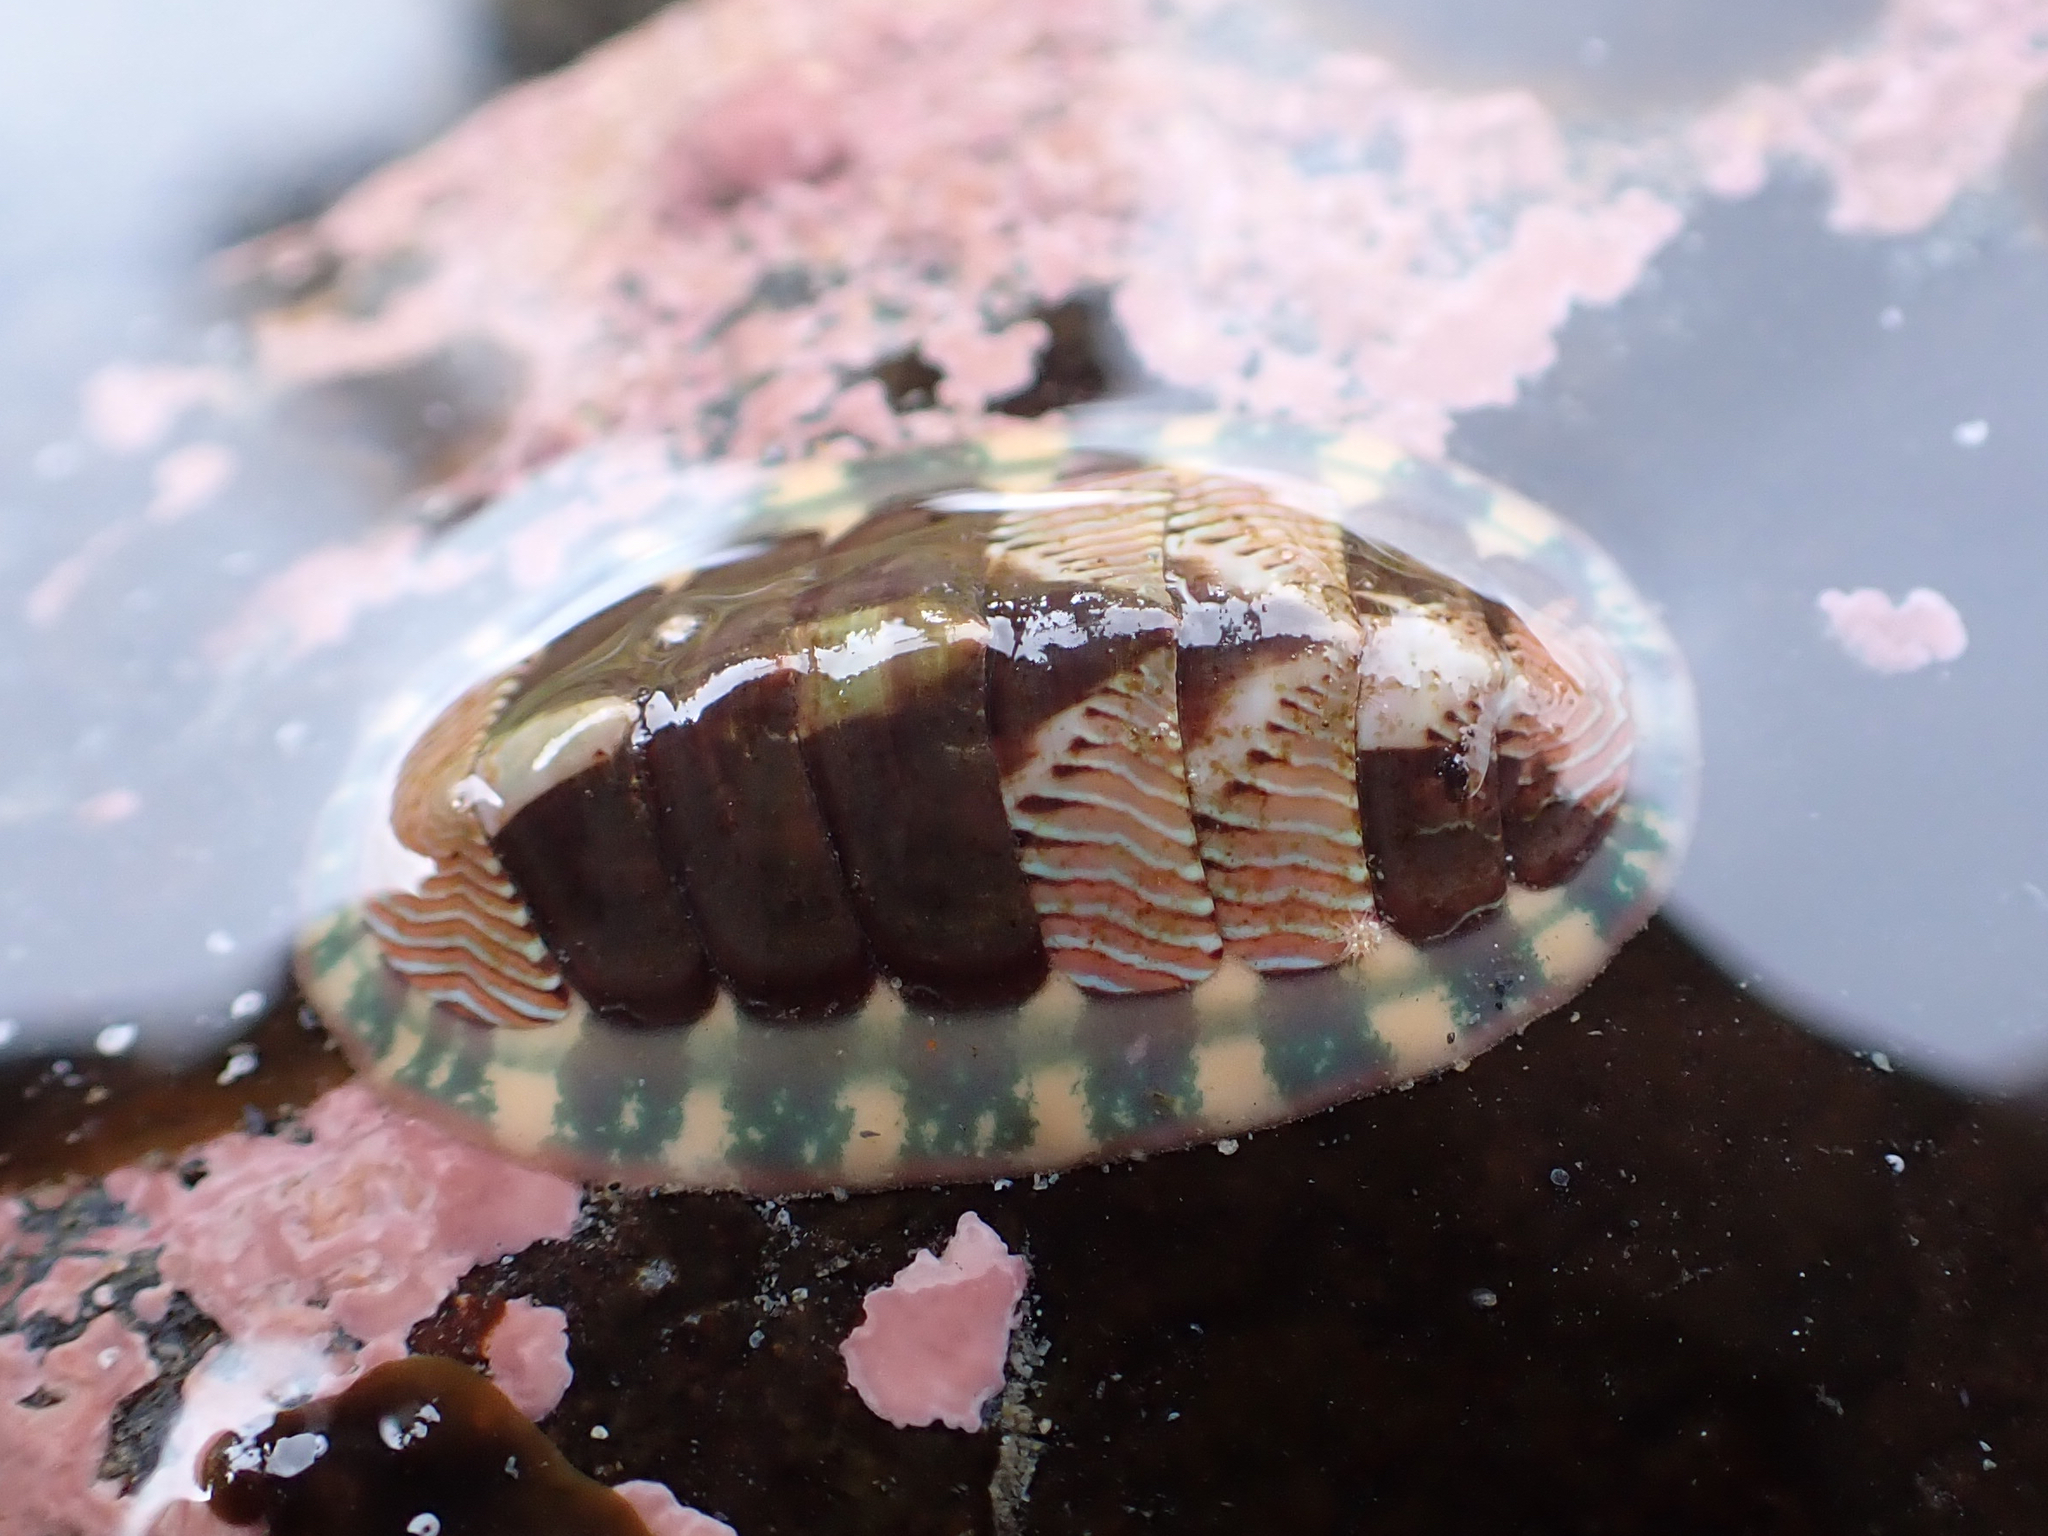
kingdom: Animalia
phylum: Mollusca
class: Polyplacophora
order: Chitonida
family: Tonicellidae
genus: Tonicella
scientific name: Tonicella lineata
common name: Lined chiton
